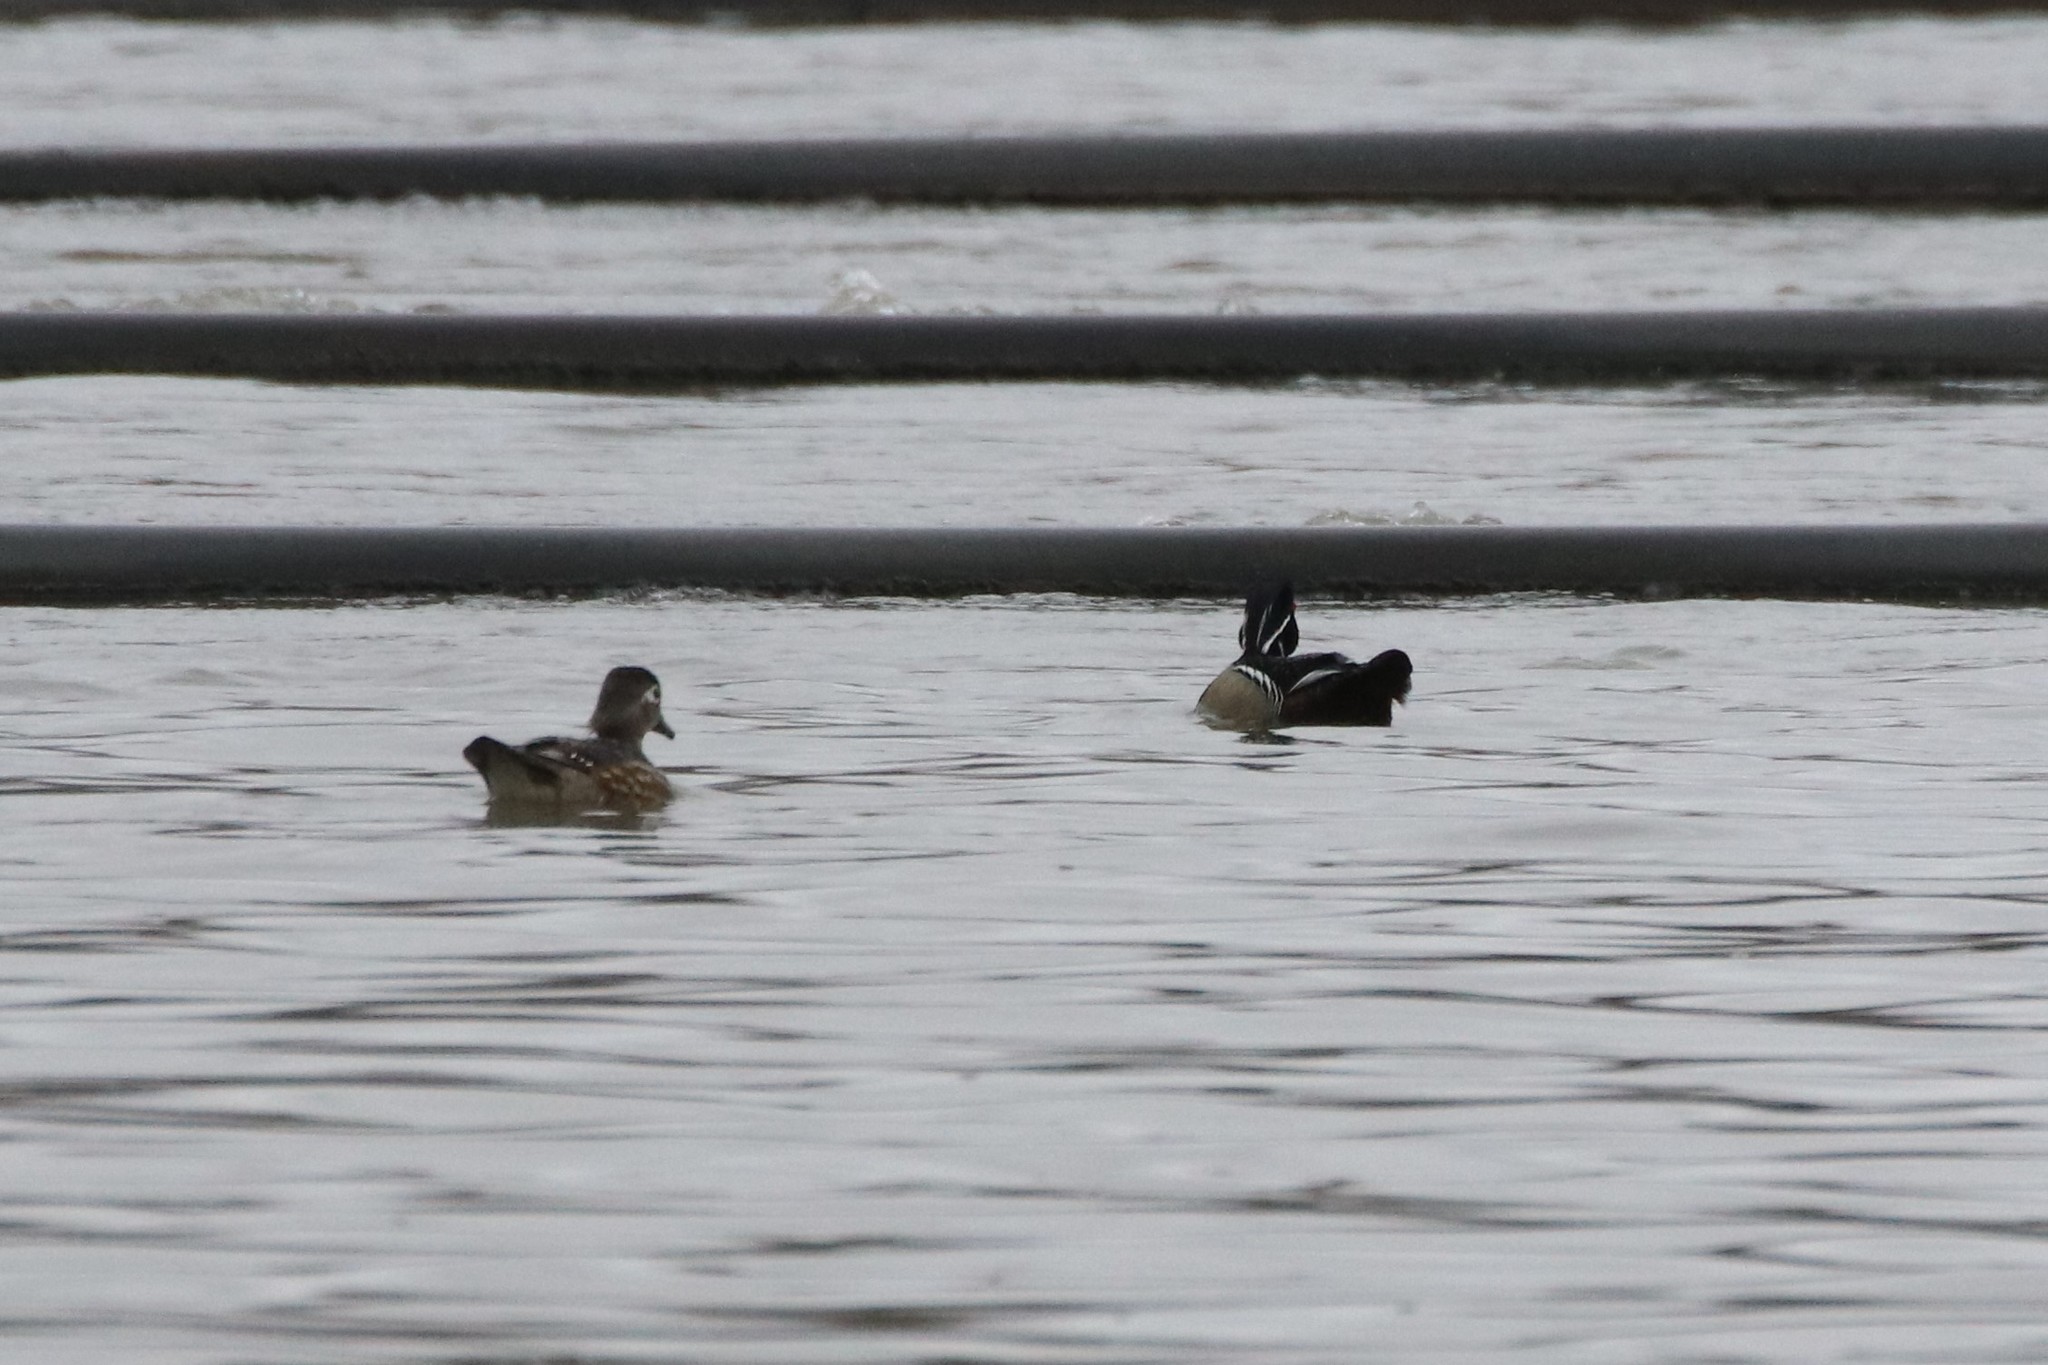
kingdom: Animalia
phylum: Chordata
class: Aves
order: Anseriformes
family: Anatidae
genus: Aix
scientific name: Aix sponsa
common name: Wood duck
